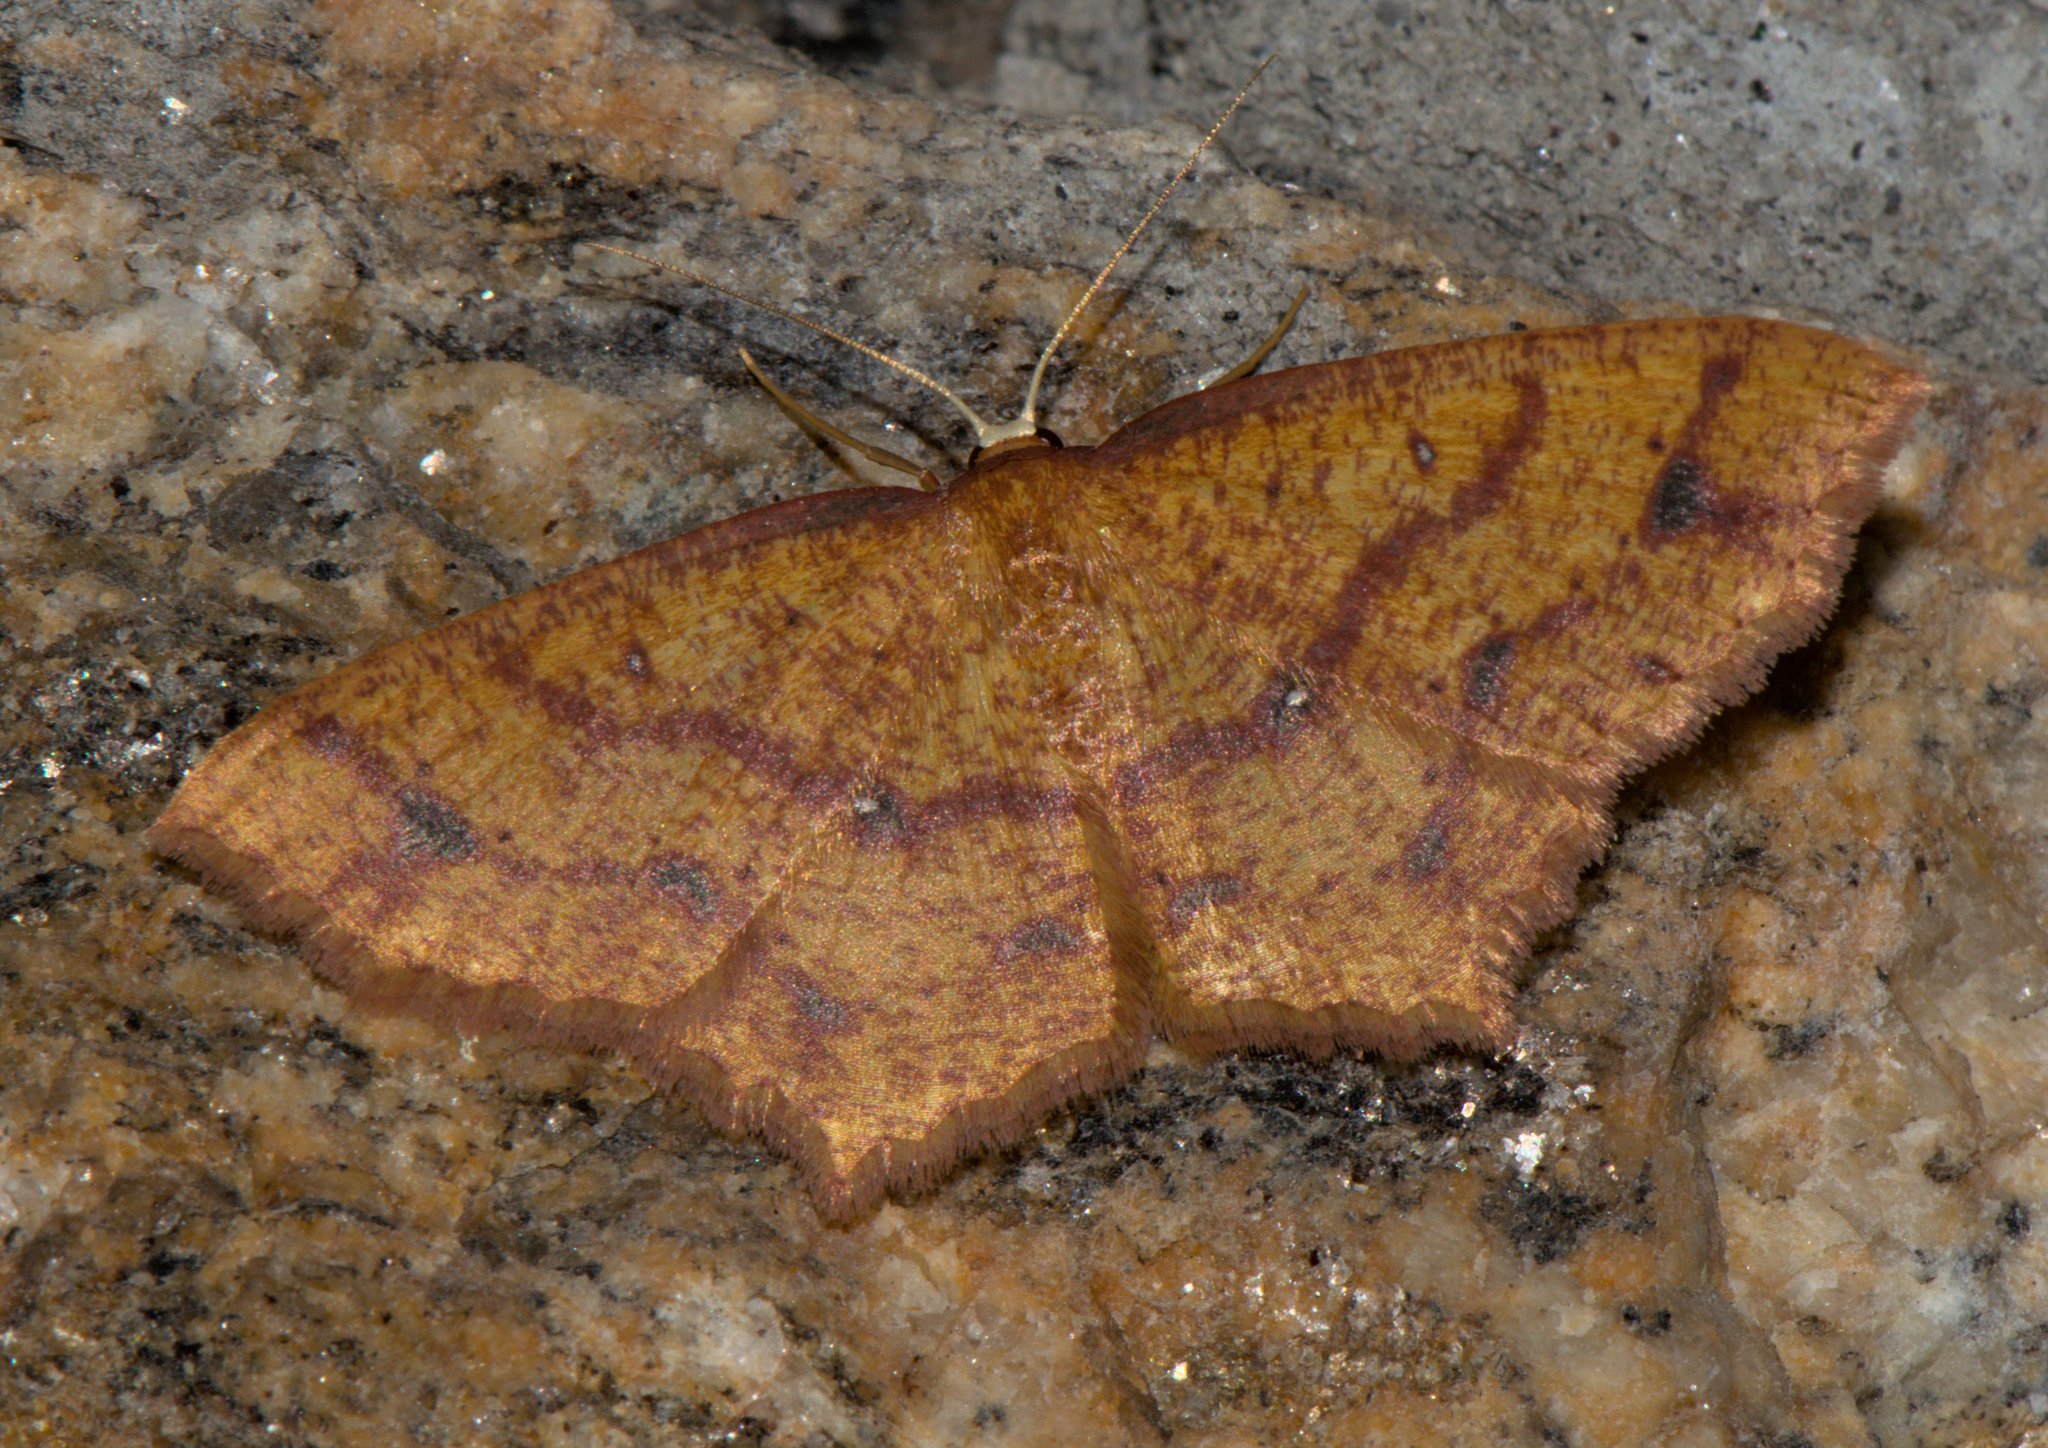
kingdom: Animalia
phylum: Arthropoda
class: Insecta
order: Lepidoptera
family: Geometridae
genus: Synegiodes
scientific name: Synegiodes hyriaria
